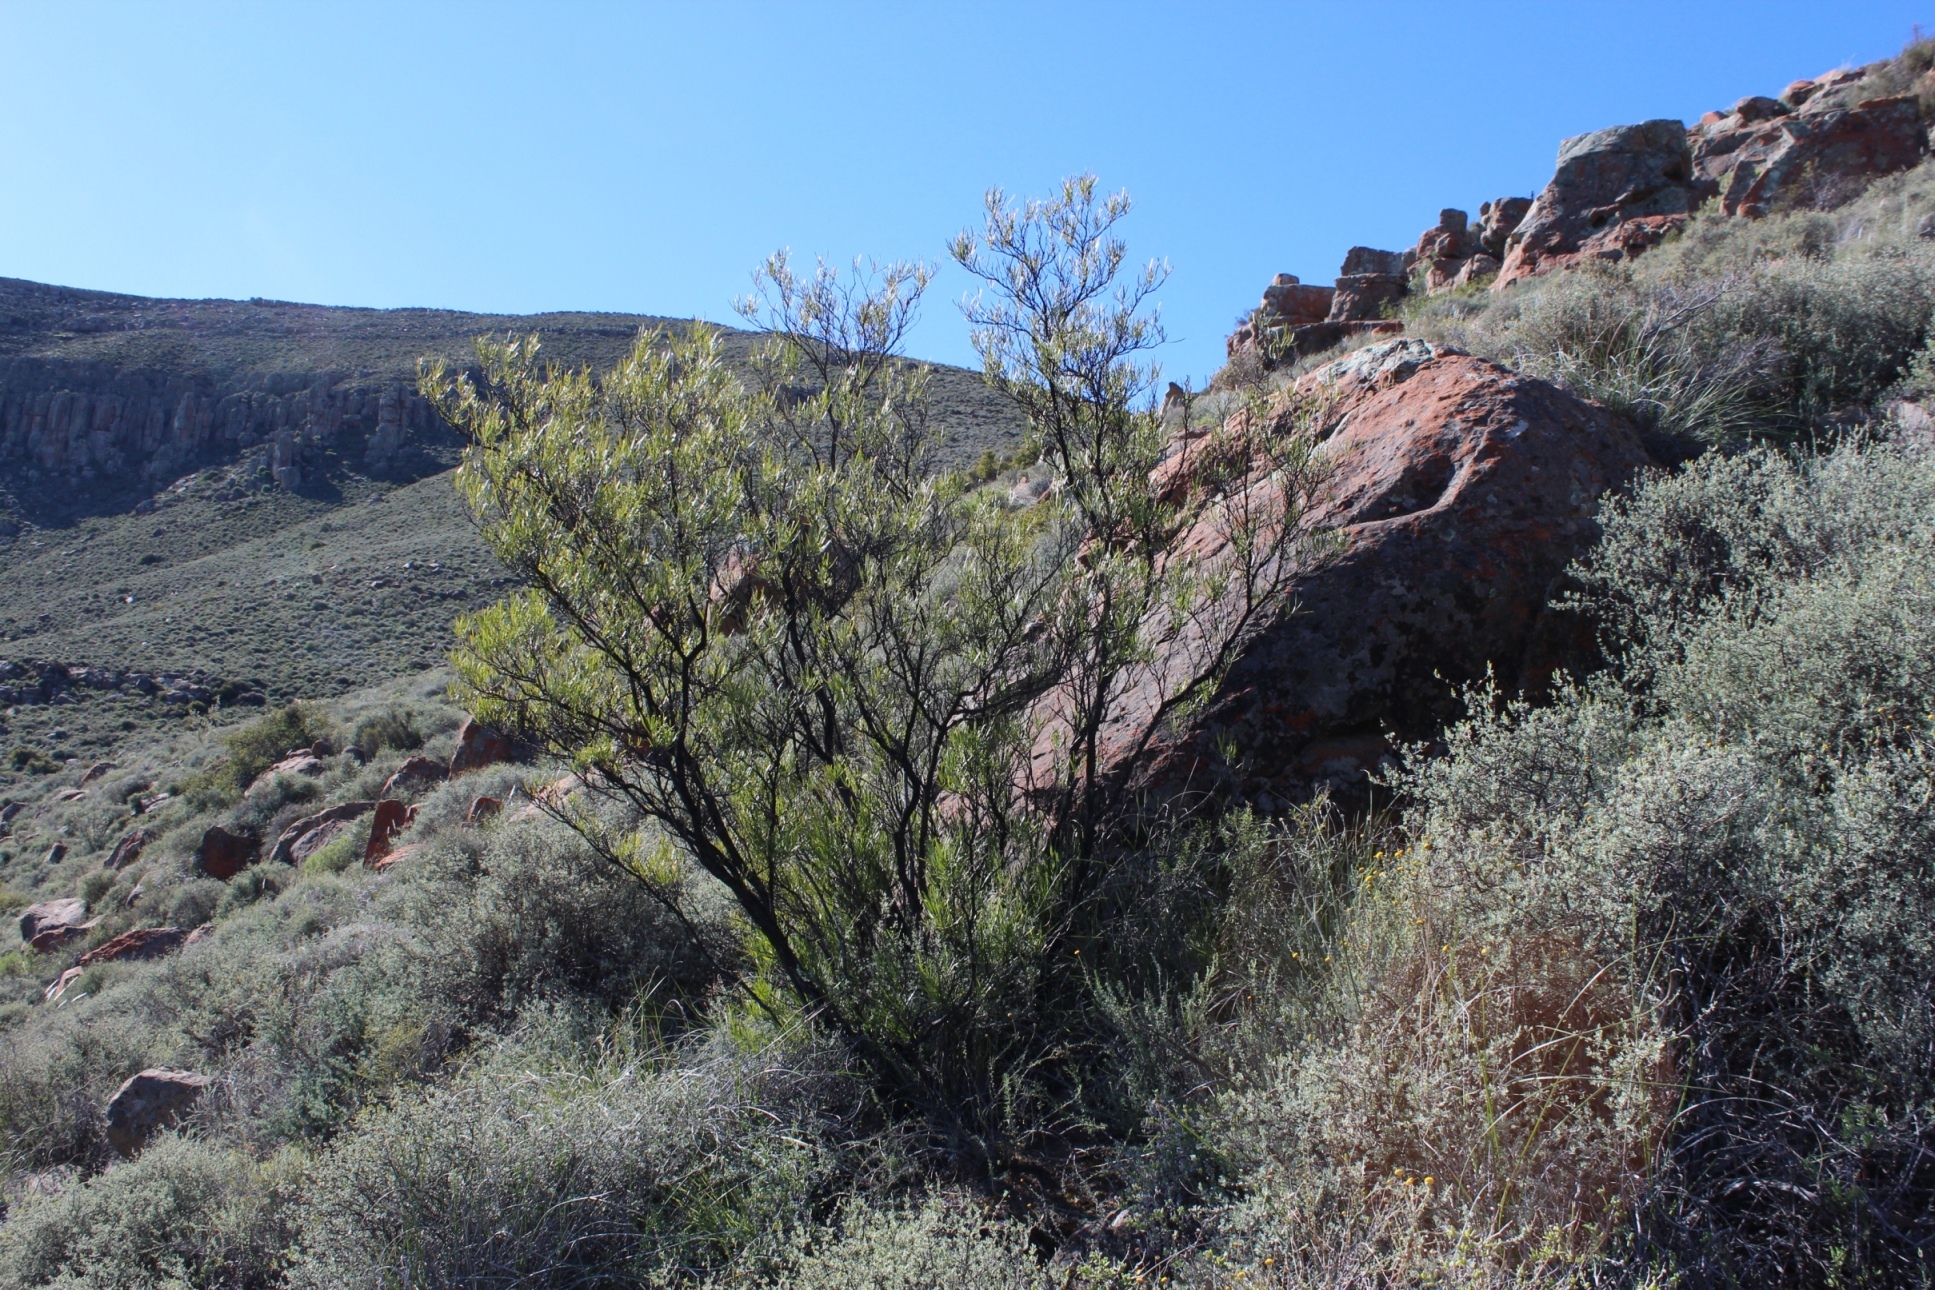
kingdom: Plantae
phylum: Tracheophyta
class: Magnoliopsida
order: Sapindales
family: Sapindaceae
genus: Dodonaea
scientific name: Dodonaea viscosa
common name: Hopbush
